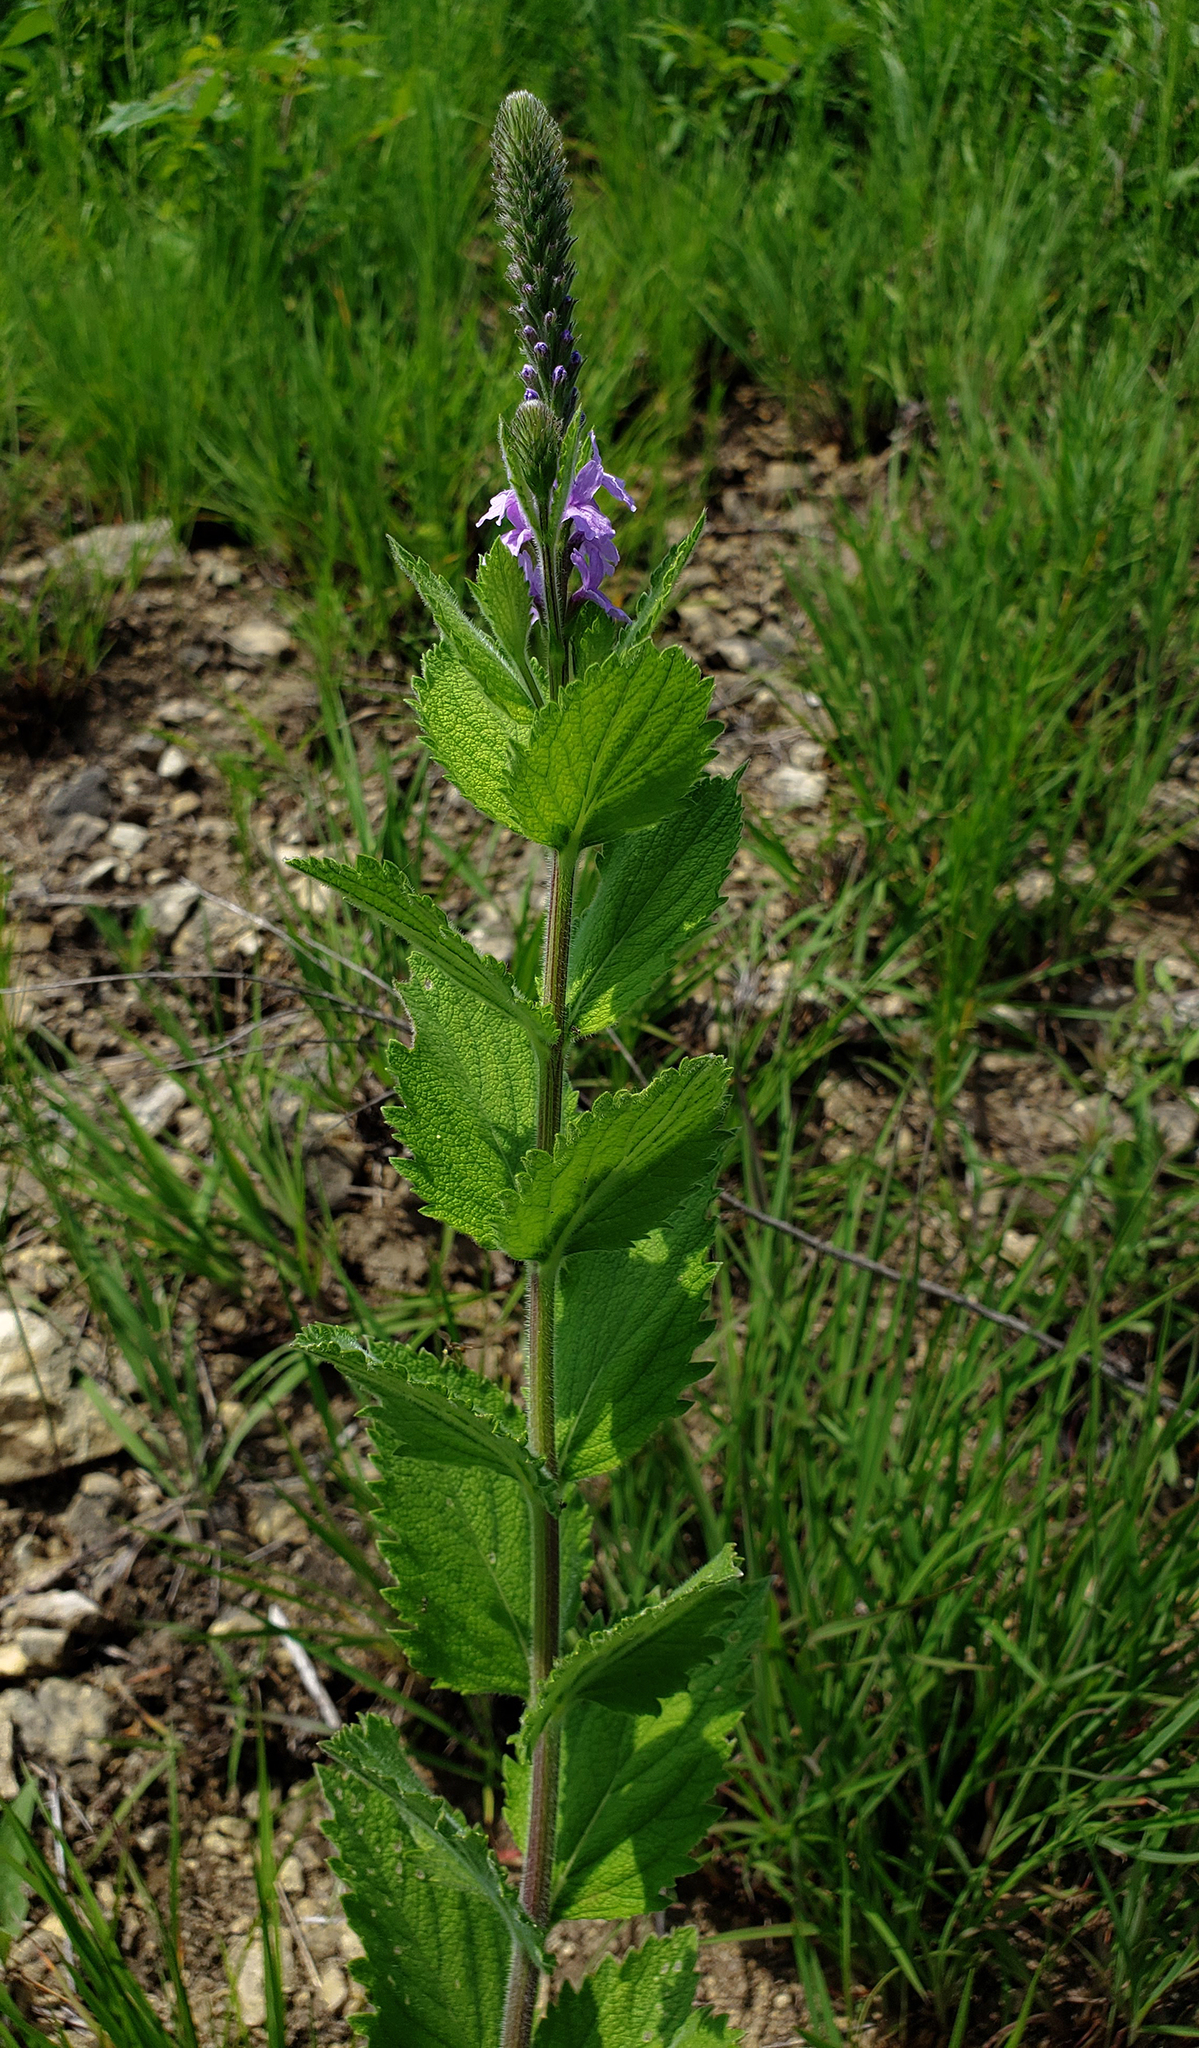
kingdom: Plantae
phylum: Tracheophyta
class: Magnoliopsida
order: Lamiales
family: Verbenaceae
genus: Verbena
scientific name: Verbena stricta
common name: Hoary vervain
